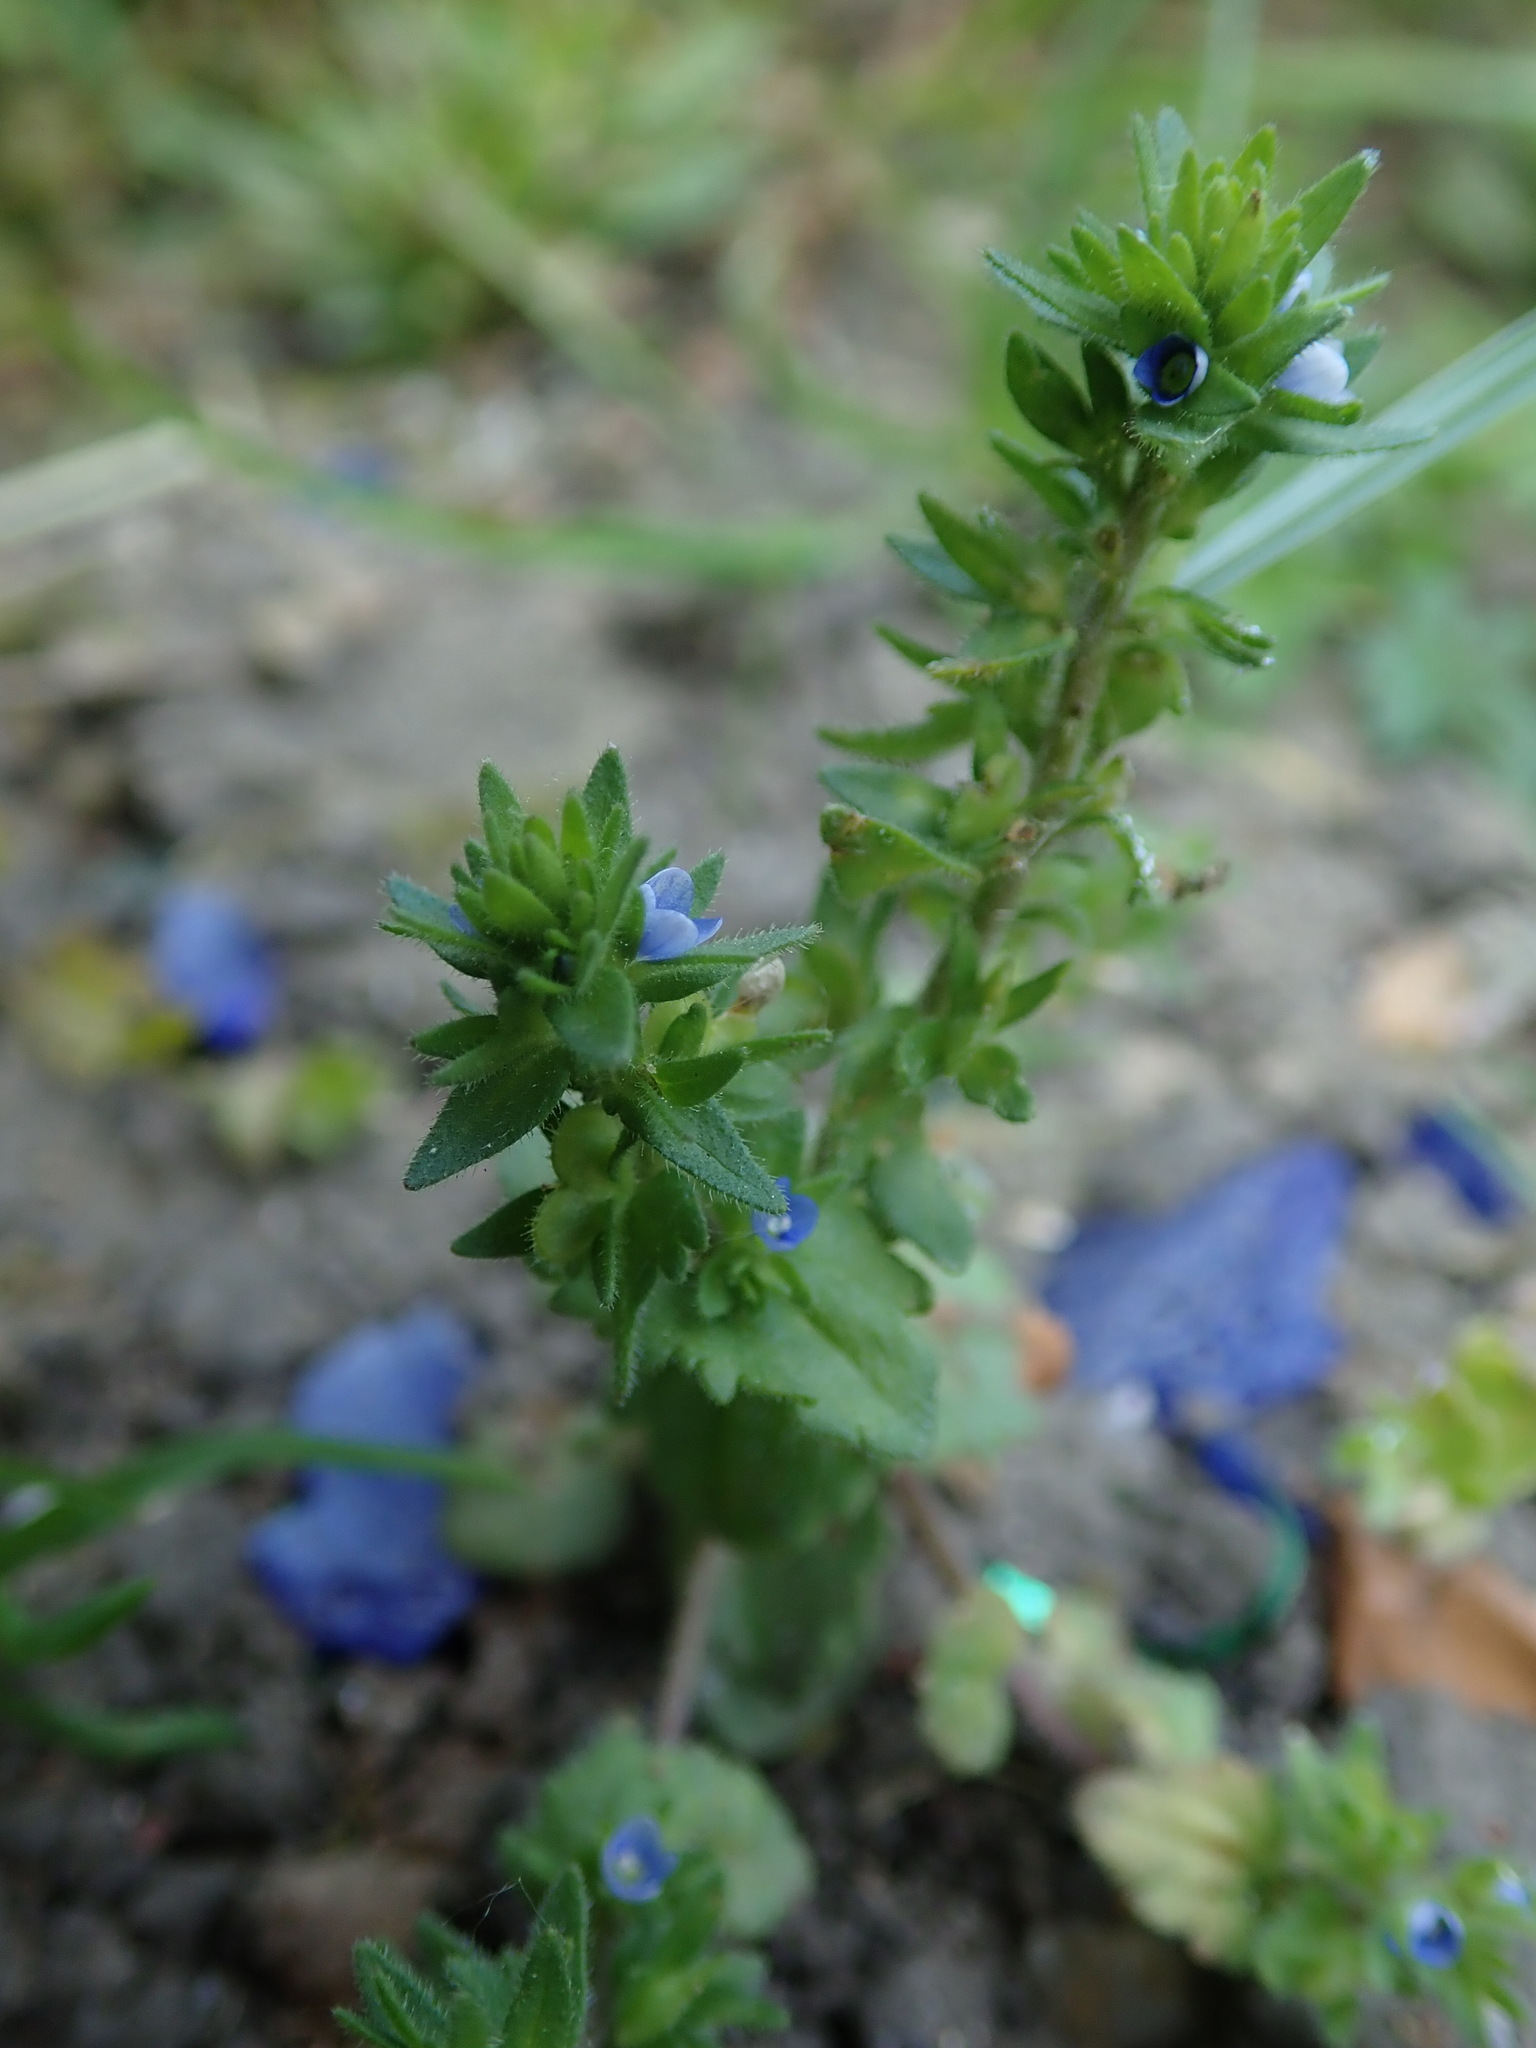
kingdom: Plantae
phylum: Tracheophyta
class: Magnoliopsida
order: Lamiales
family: Plantaginaceae
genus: Veronica
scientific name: Veronica arvensis
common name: Corn speedwell
